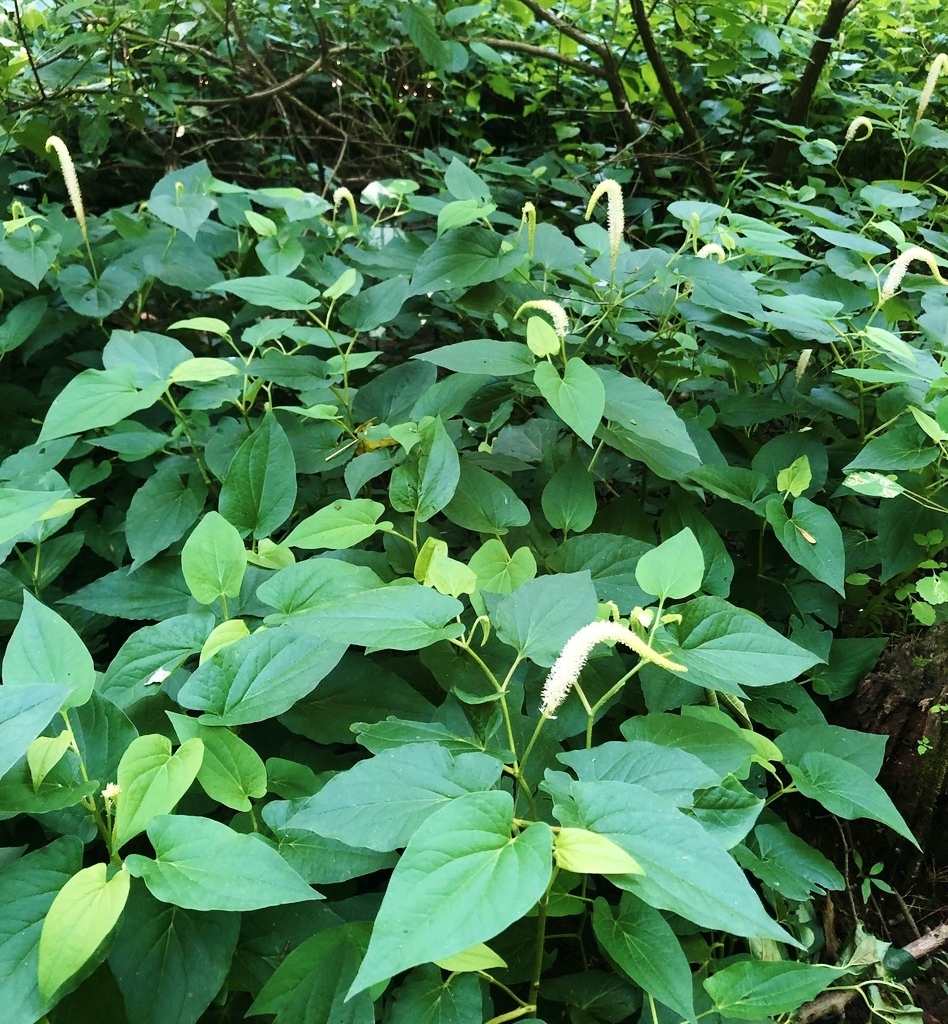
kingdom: Plantae
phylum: Tracheophyta
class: Magnoliopsida
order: Piperales
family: Saururaceae
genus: Saururus
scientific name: Saururus cernuus
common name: Lizard's-tail
